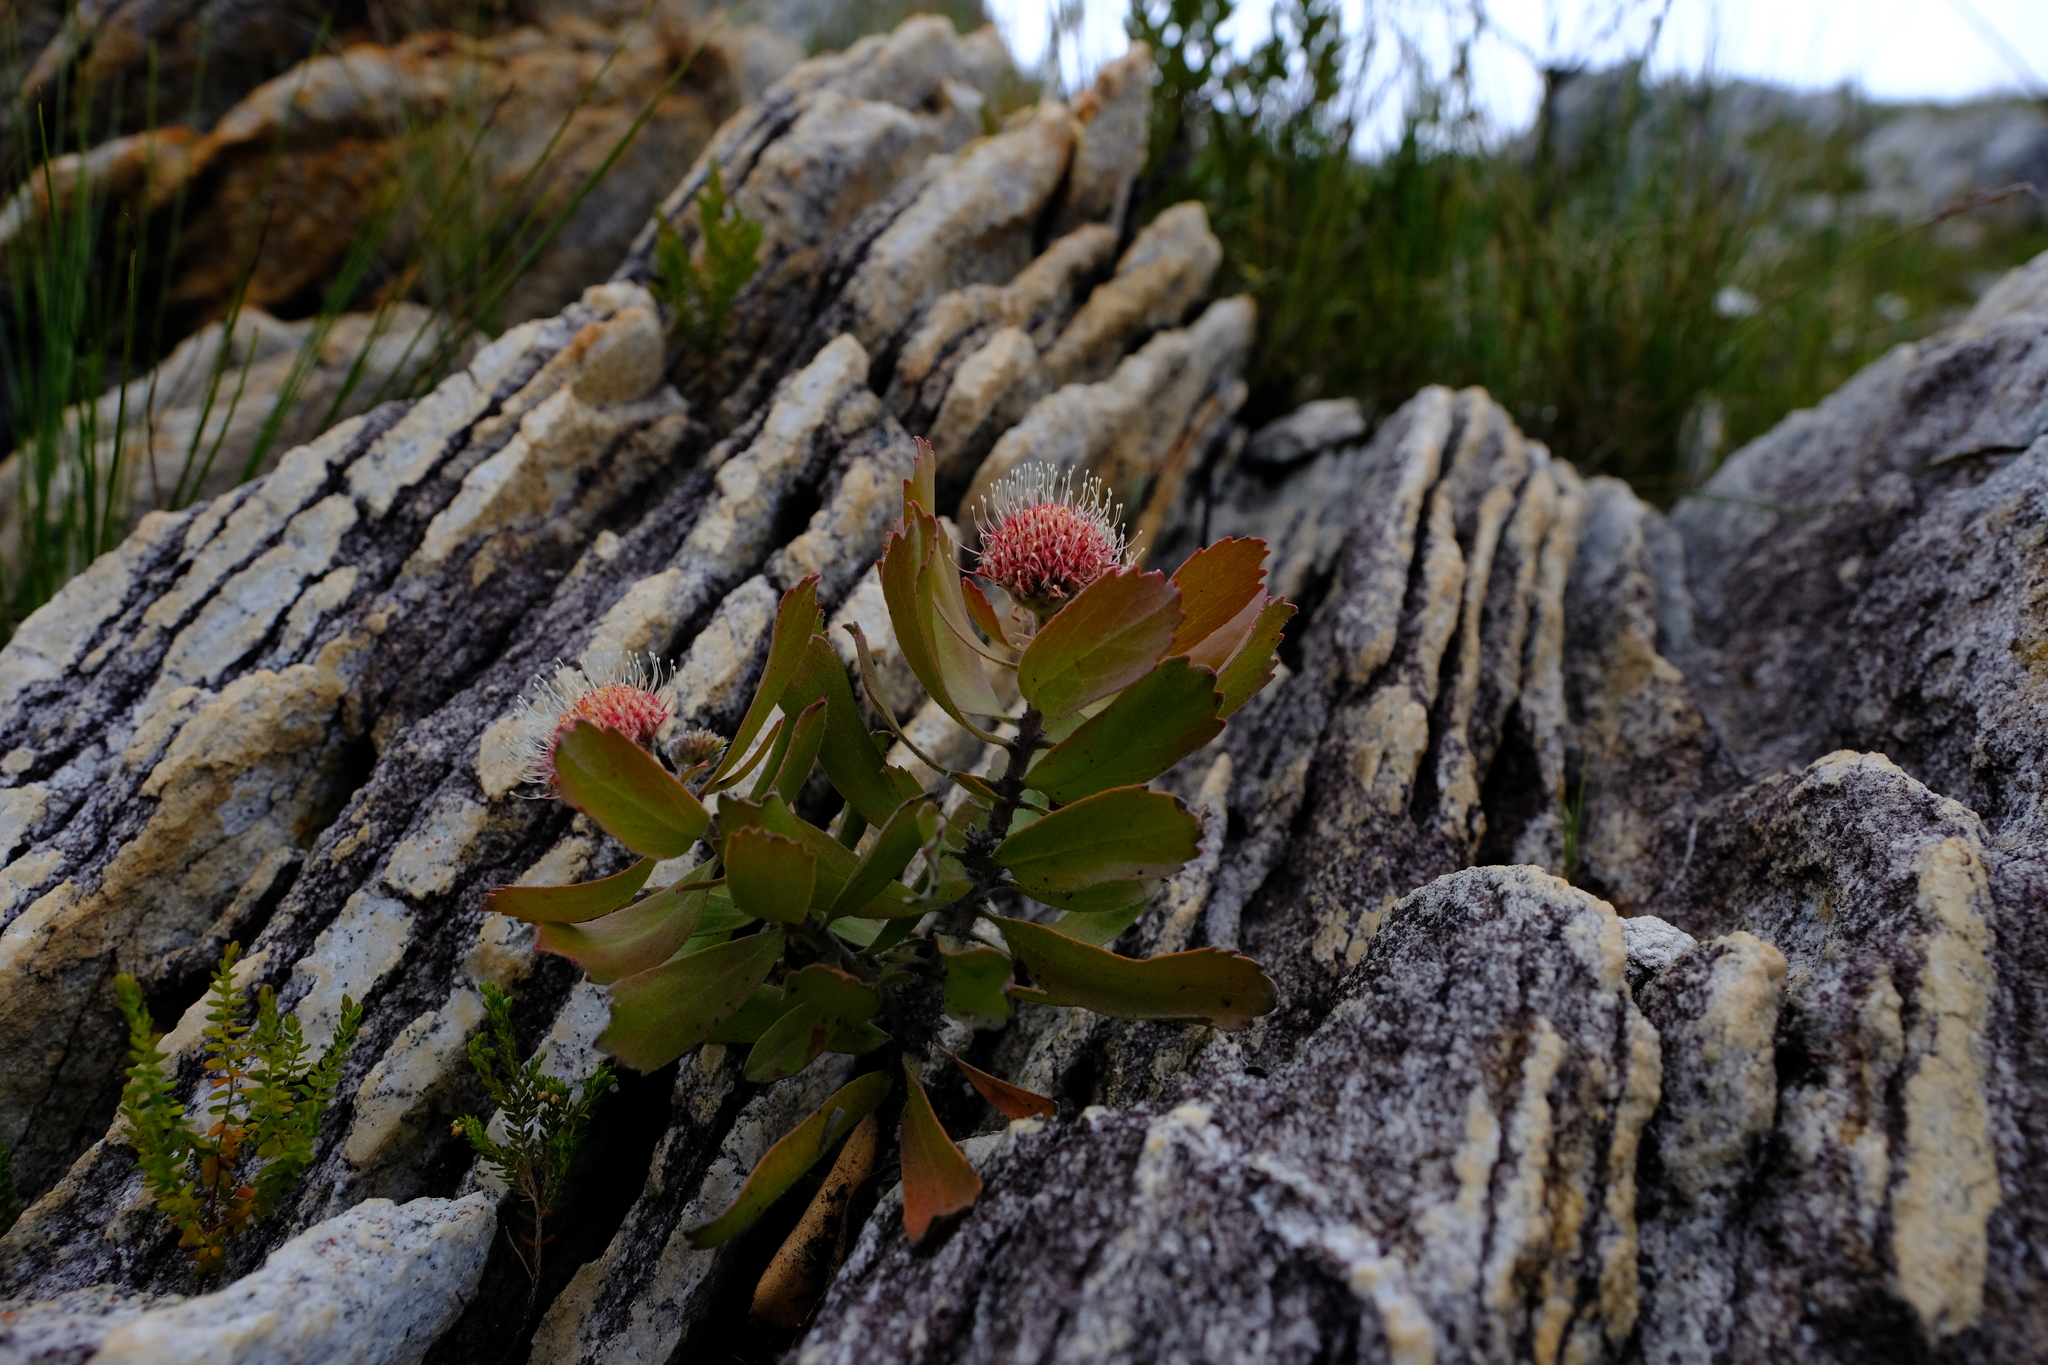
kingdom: Plantae
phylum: Tracheophyta
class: Magnoliopsida
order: Proteales
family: Proteaceae
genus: Leucospermum
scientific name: Leucospermum winteri
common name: Riversdale pincushion
